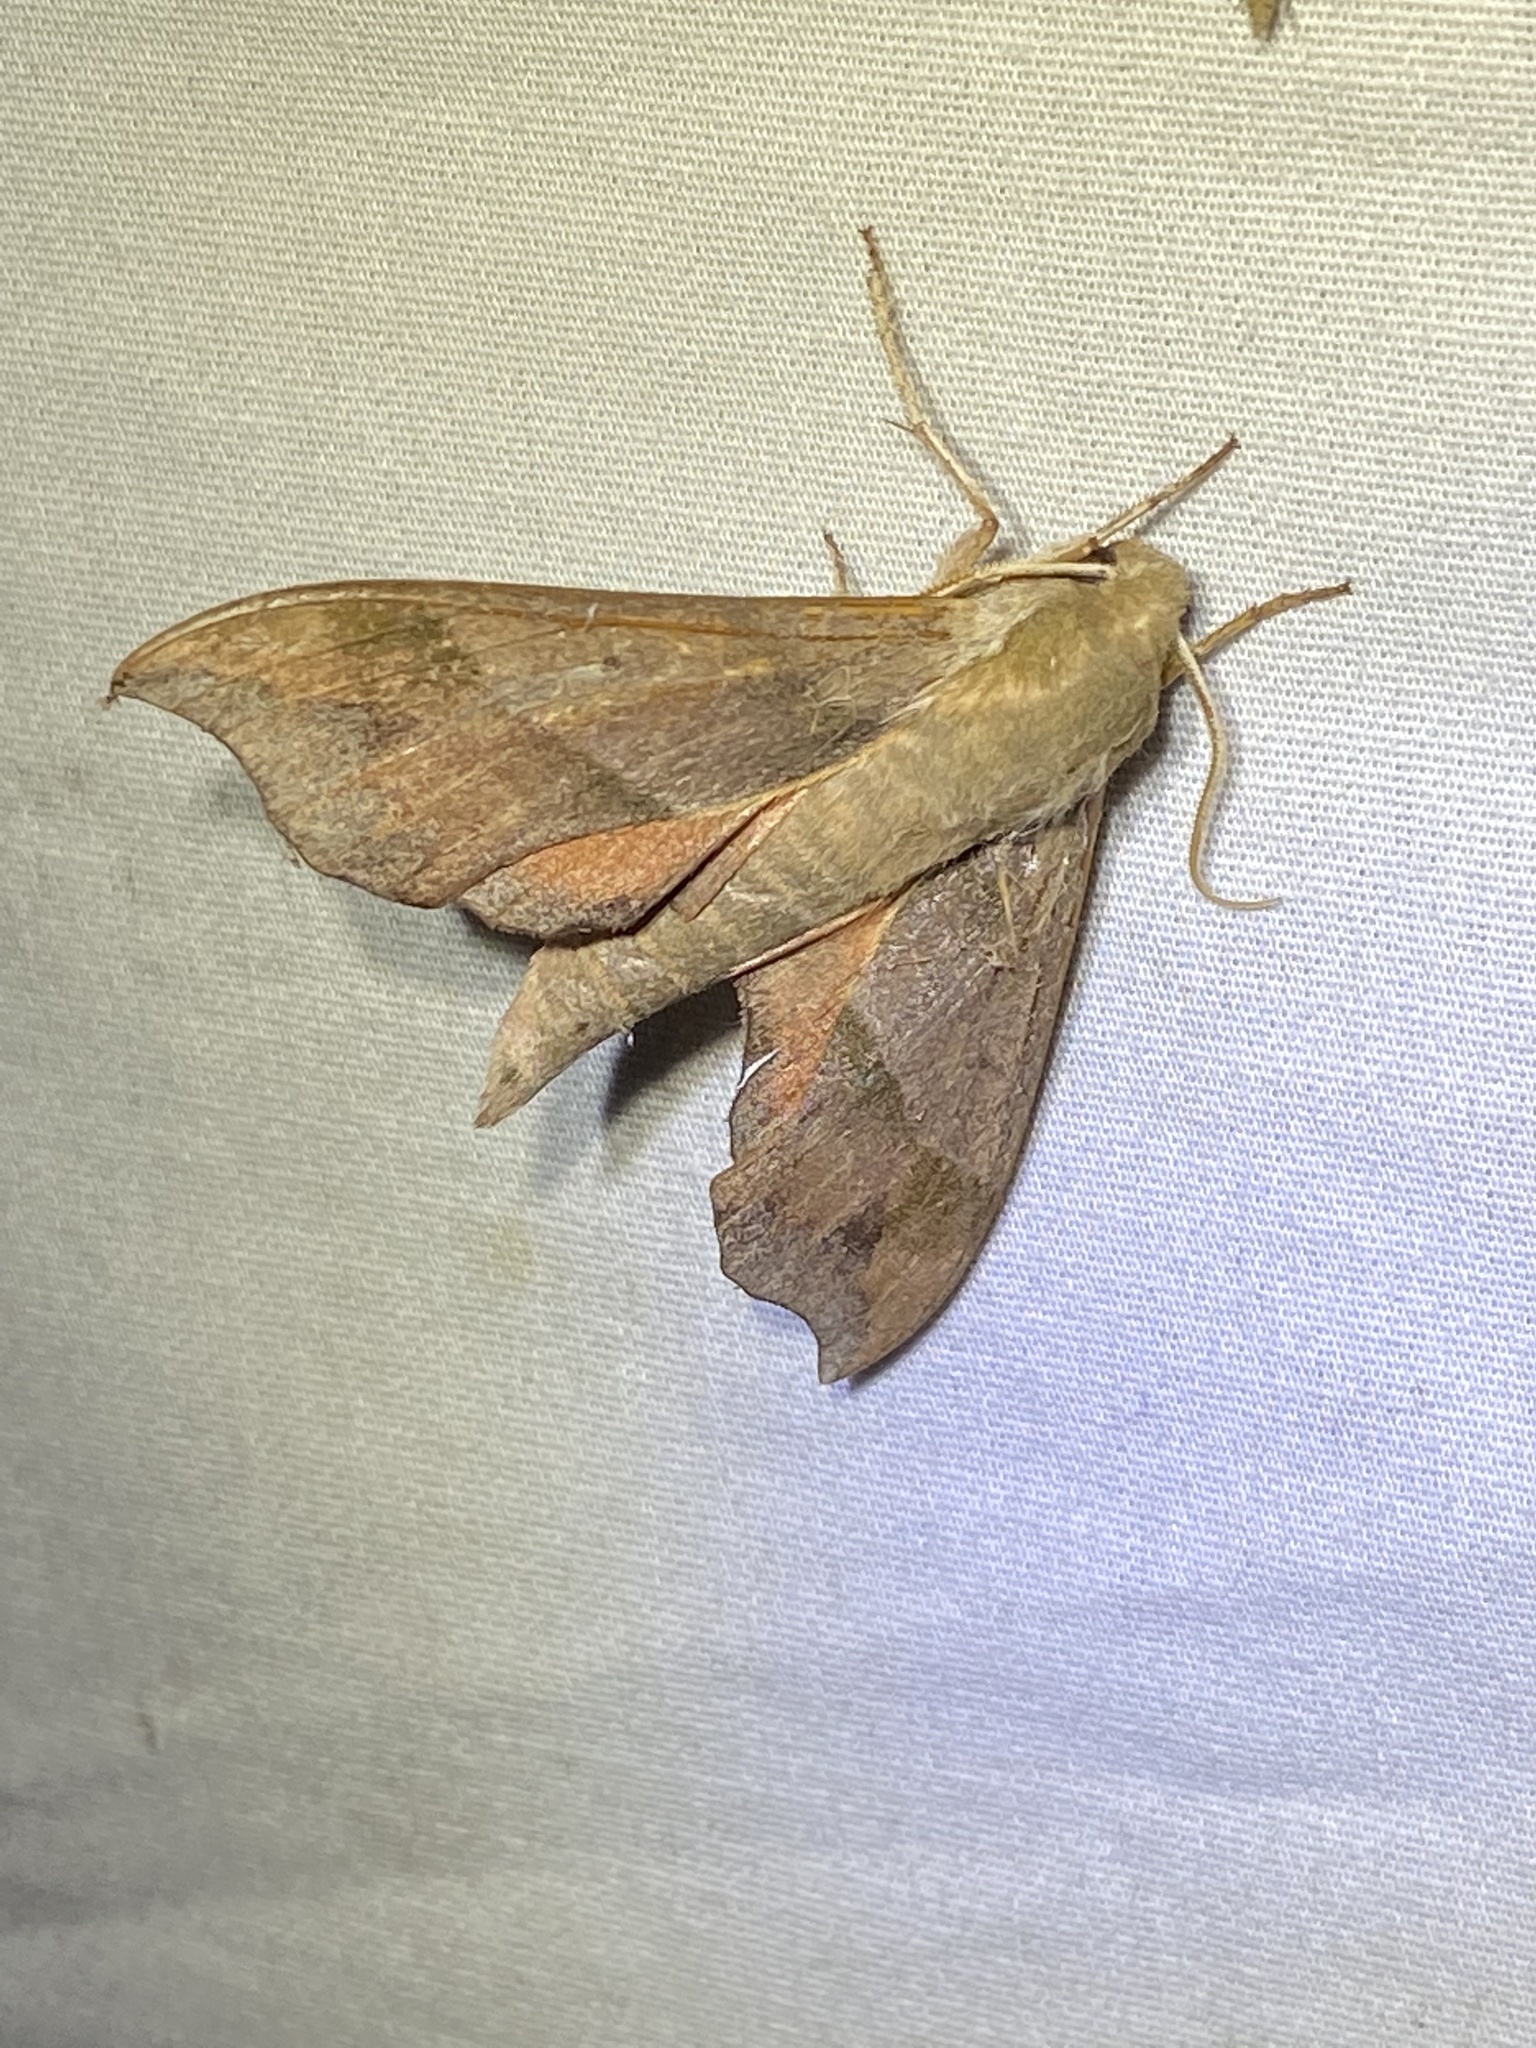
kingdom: Animalia
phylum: Arthropoda
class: Insecta
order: Lepidoptera
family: Sphingidae
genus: Darapsa
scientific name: Darapsa myron
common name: Hog sphinx
